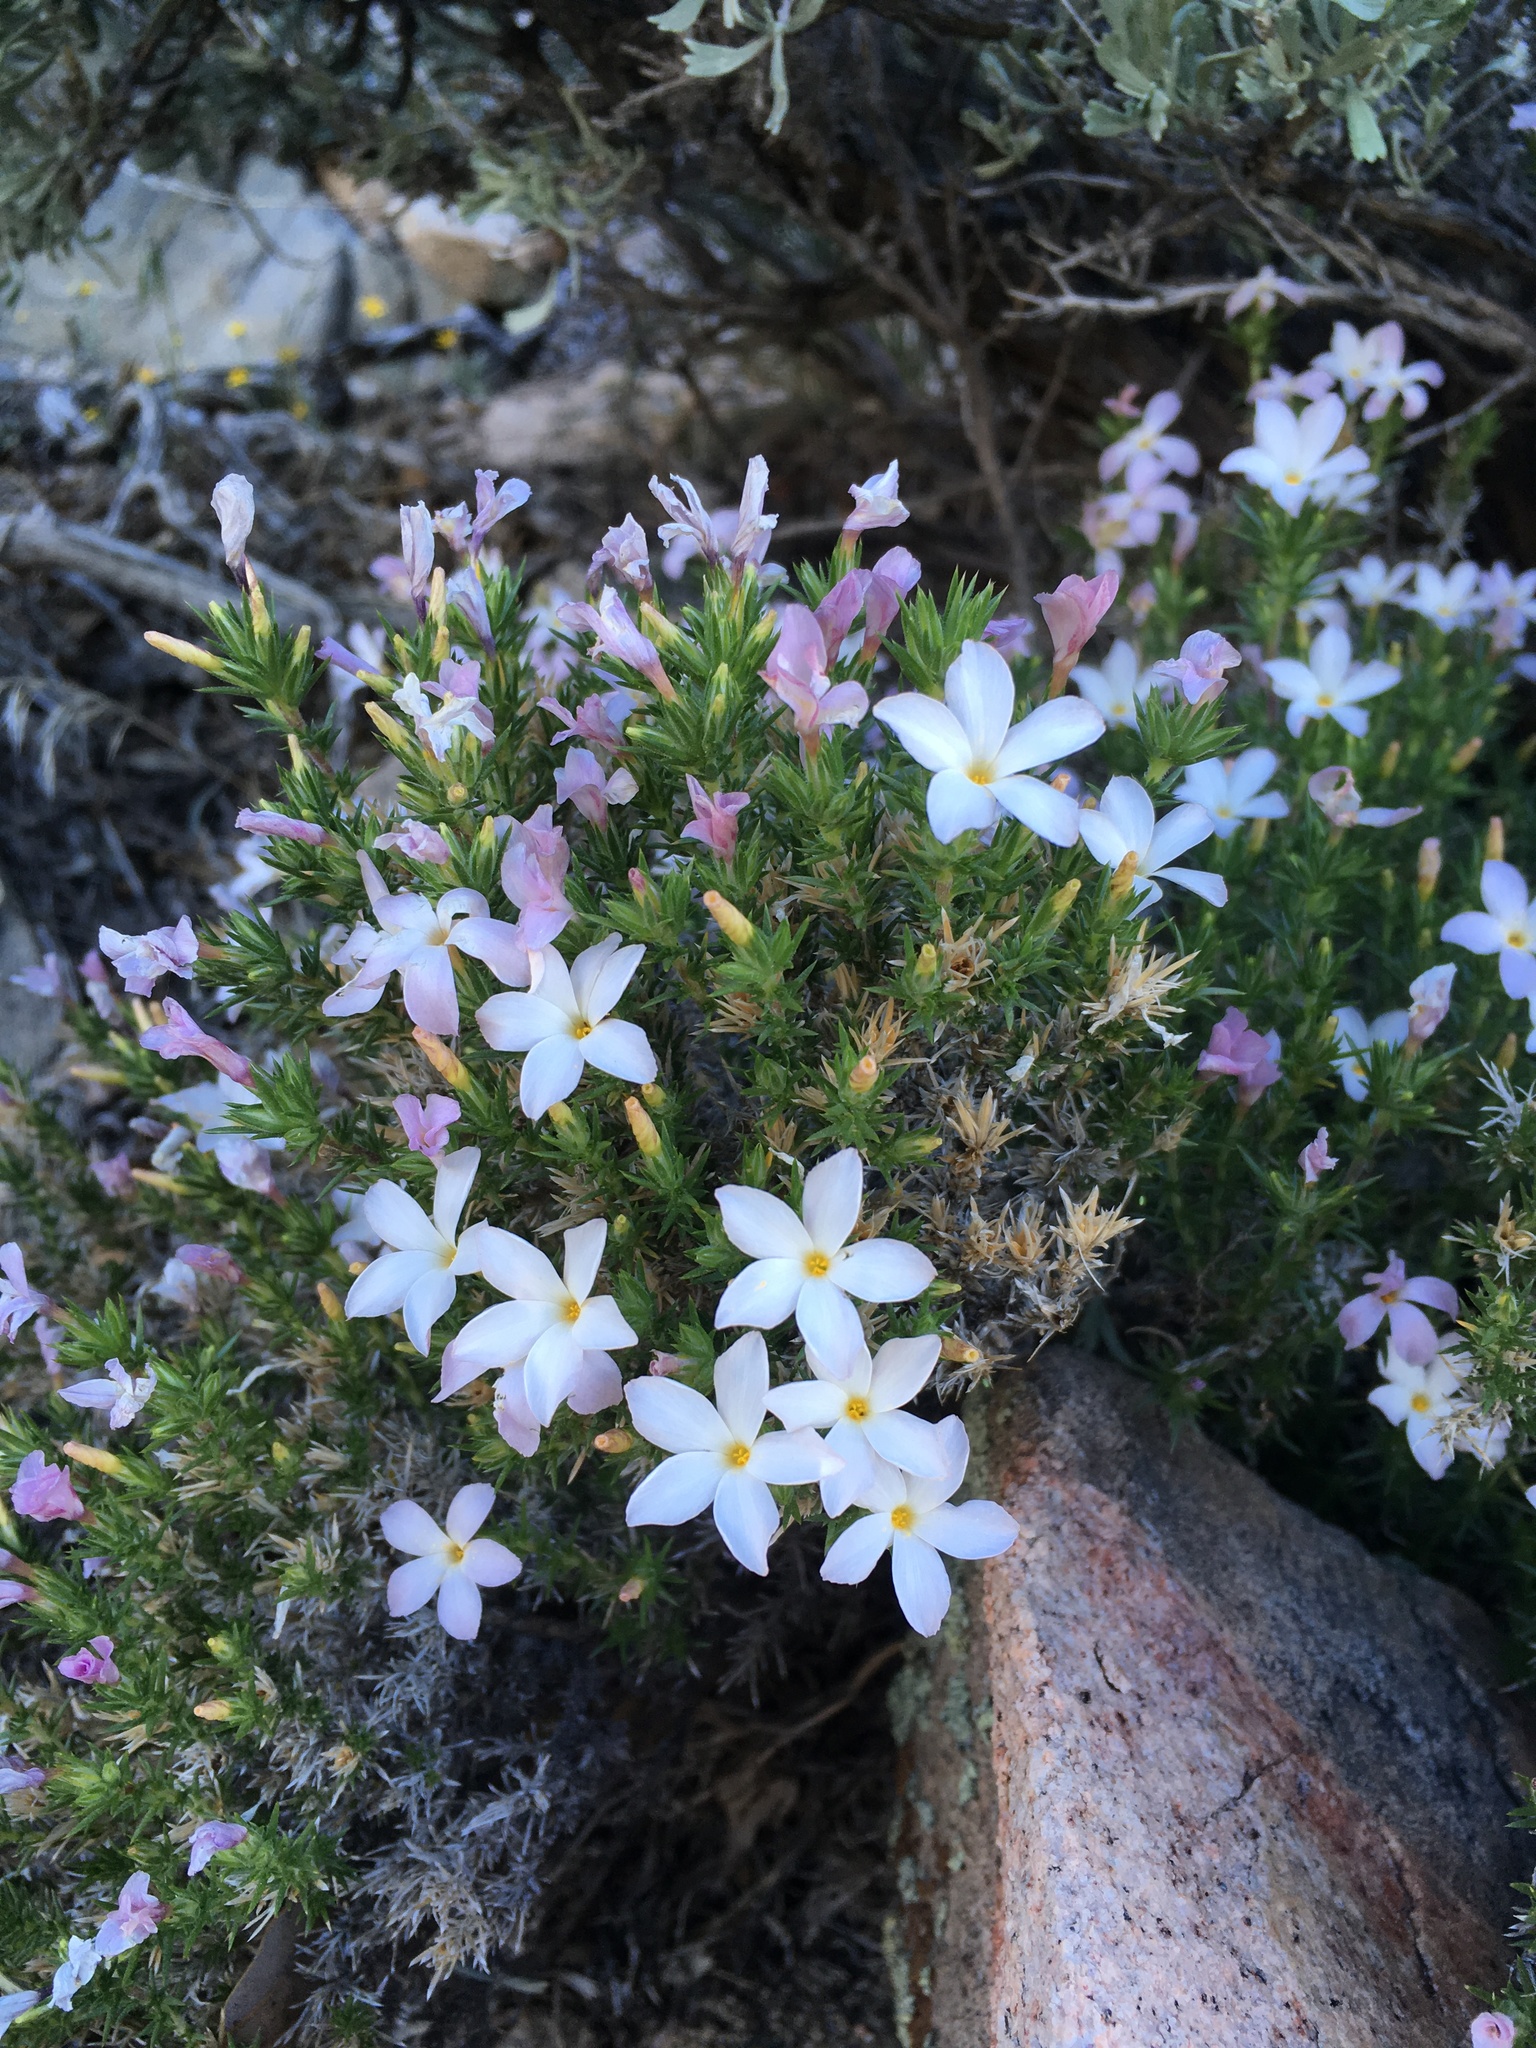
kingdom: Plantae
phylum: Tracheophyta
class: Magnoliopsida
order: Ericales
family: Polemoniaceae
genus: Linanthus
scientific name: Linanthus pungens
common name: Granite prickly phlox
